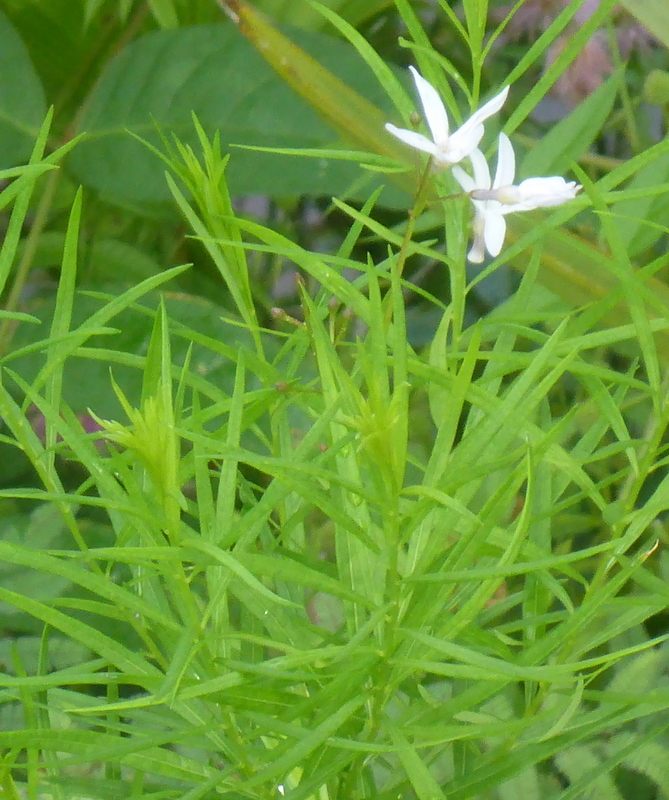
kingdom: Plantae
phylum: Tracheophyta
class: Magnoliopsida
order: Gentianales
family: Apocynaceae
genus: Amsonia
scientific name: Amsonia ciliata
